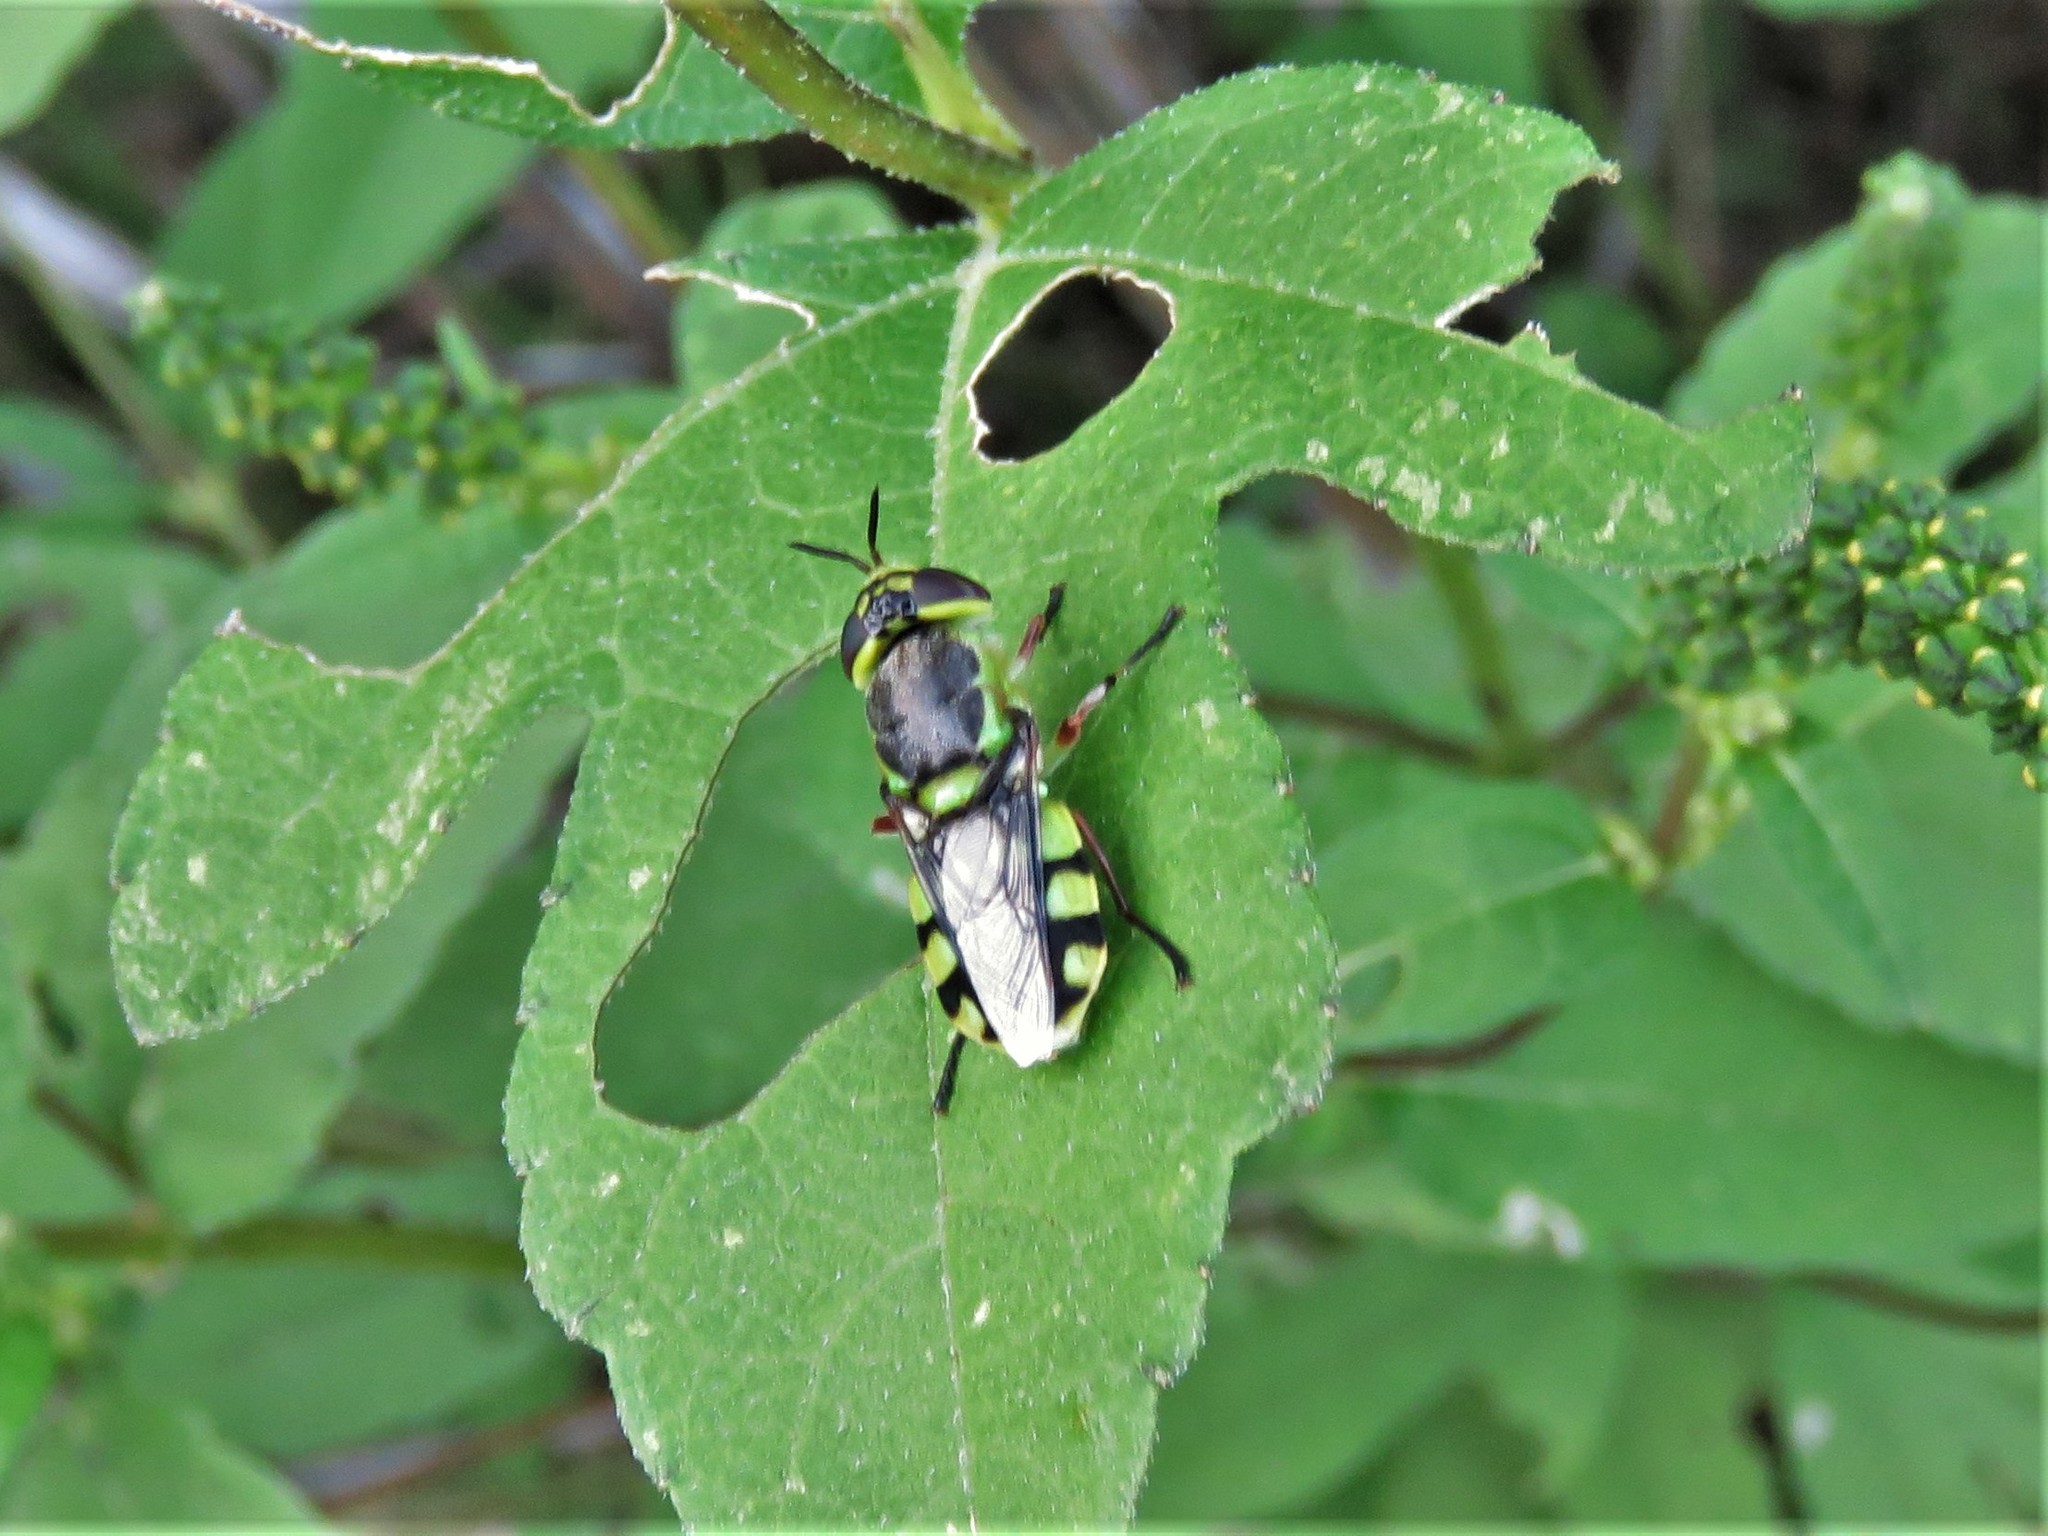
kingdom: Animalia
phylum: Arthropoda
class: Insecta
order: Diptera
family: Stratiomyidae
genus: Hedriodiscus
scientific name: Hedriodiscus truquii
